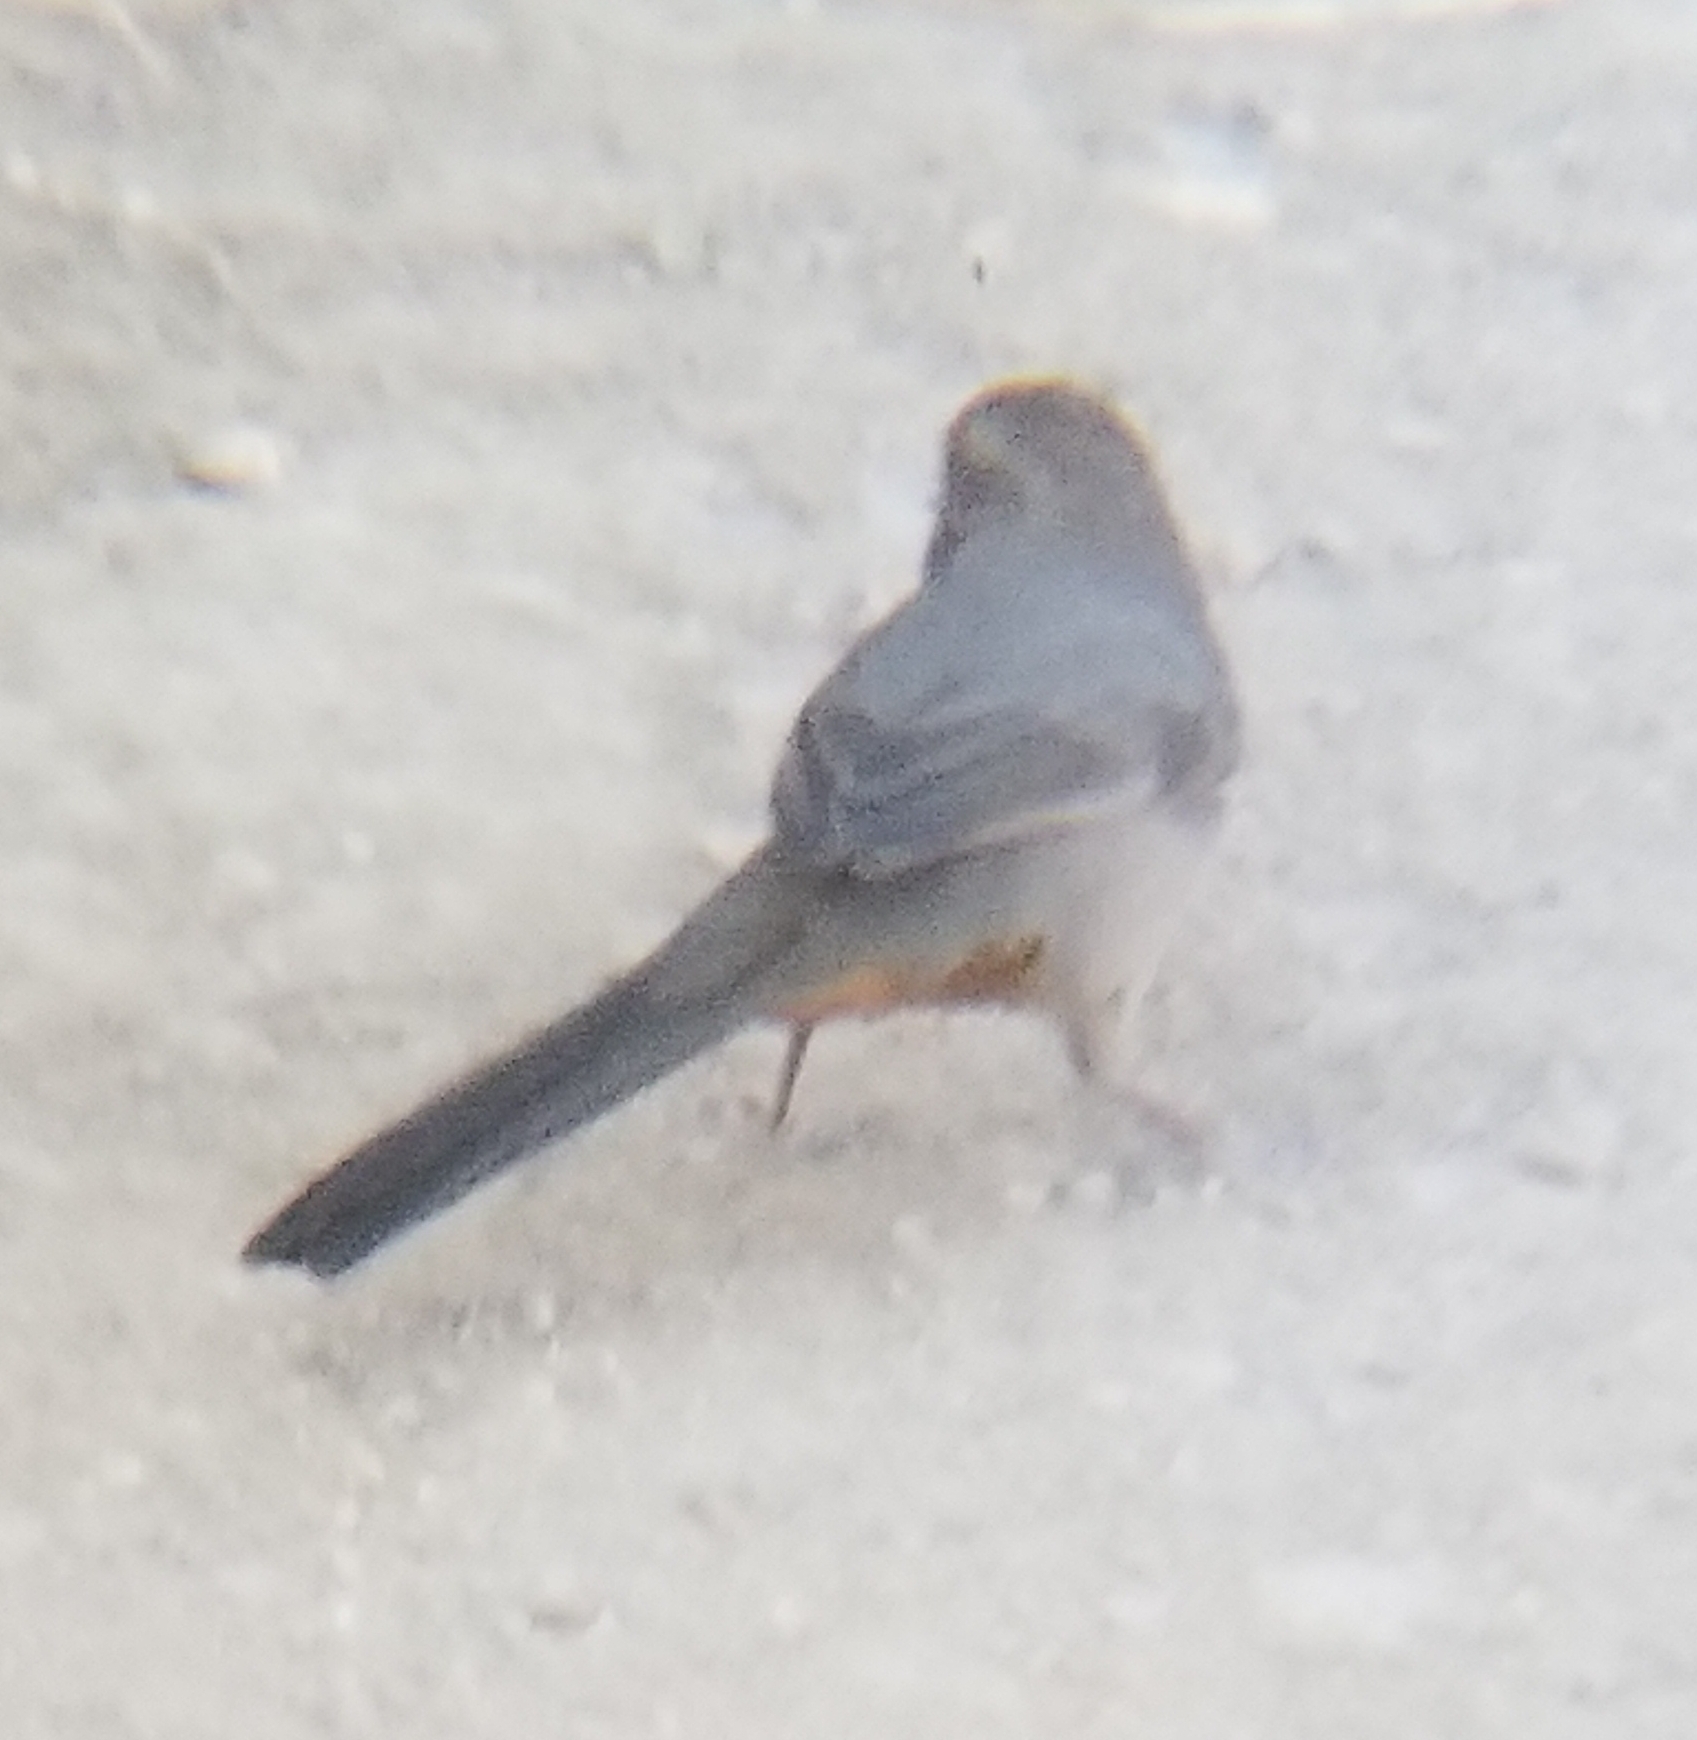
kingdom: Animalia
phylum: Chordata
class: Aves
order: Passeriformes
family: Passerellidae
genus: Melozone
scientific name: Melozone crissalis
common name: California towhee
